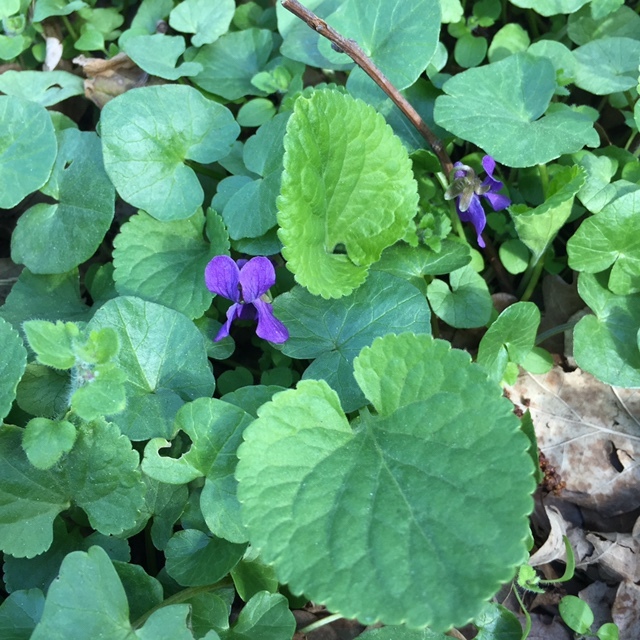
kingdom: Plantae
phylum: Tracheophyta
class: Magnoliopsida
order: Malpighiales
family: Violaceae
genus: Viola
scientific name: Viola odorata
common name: Sweet violet
